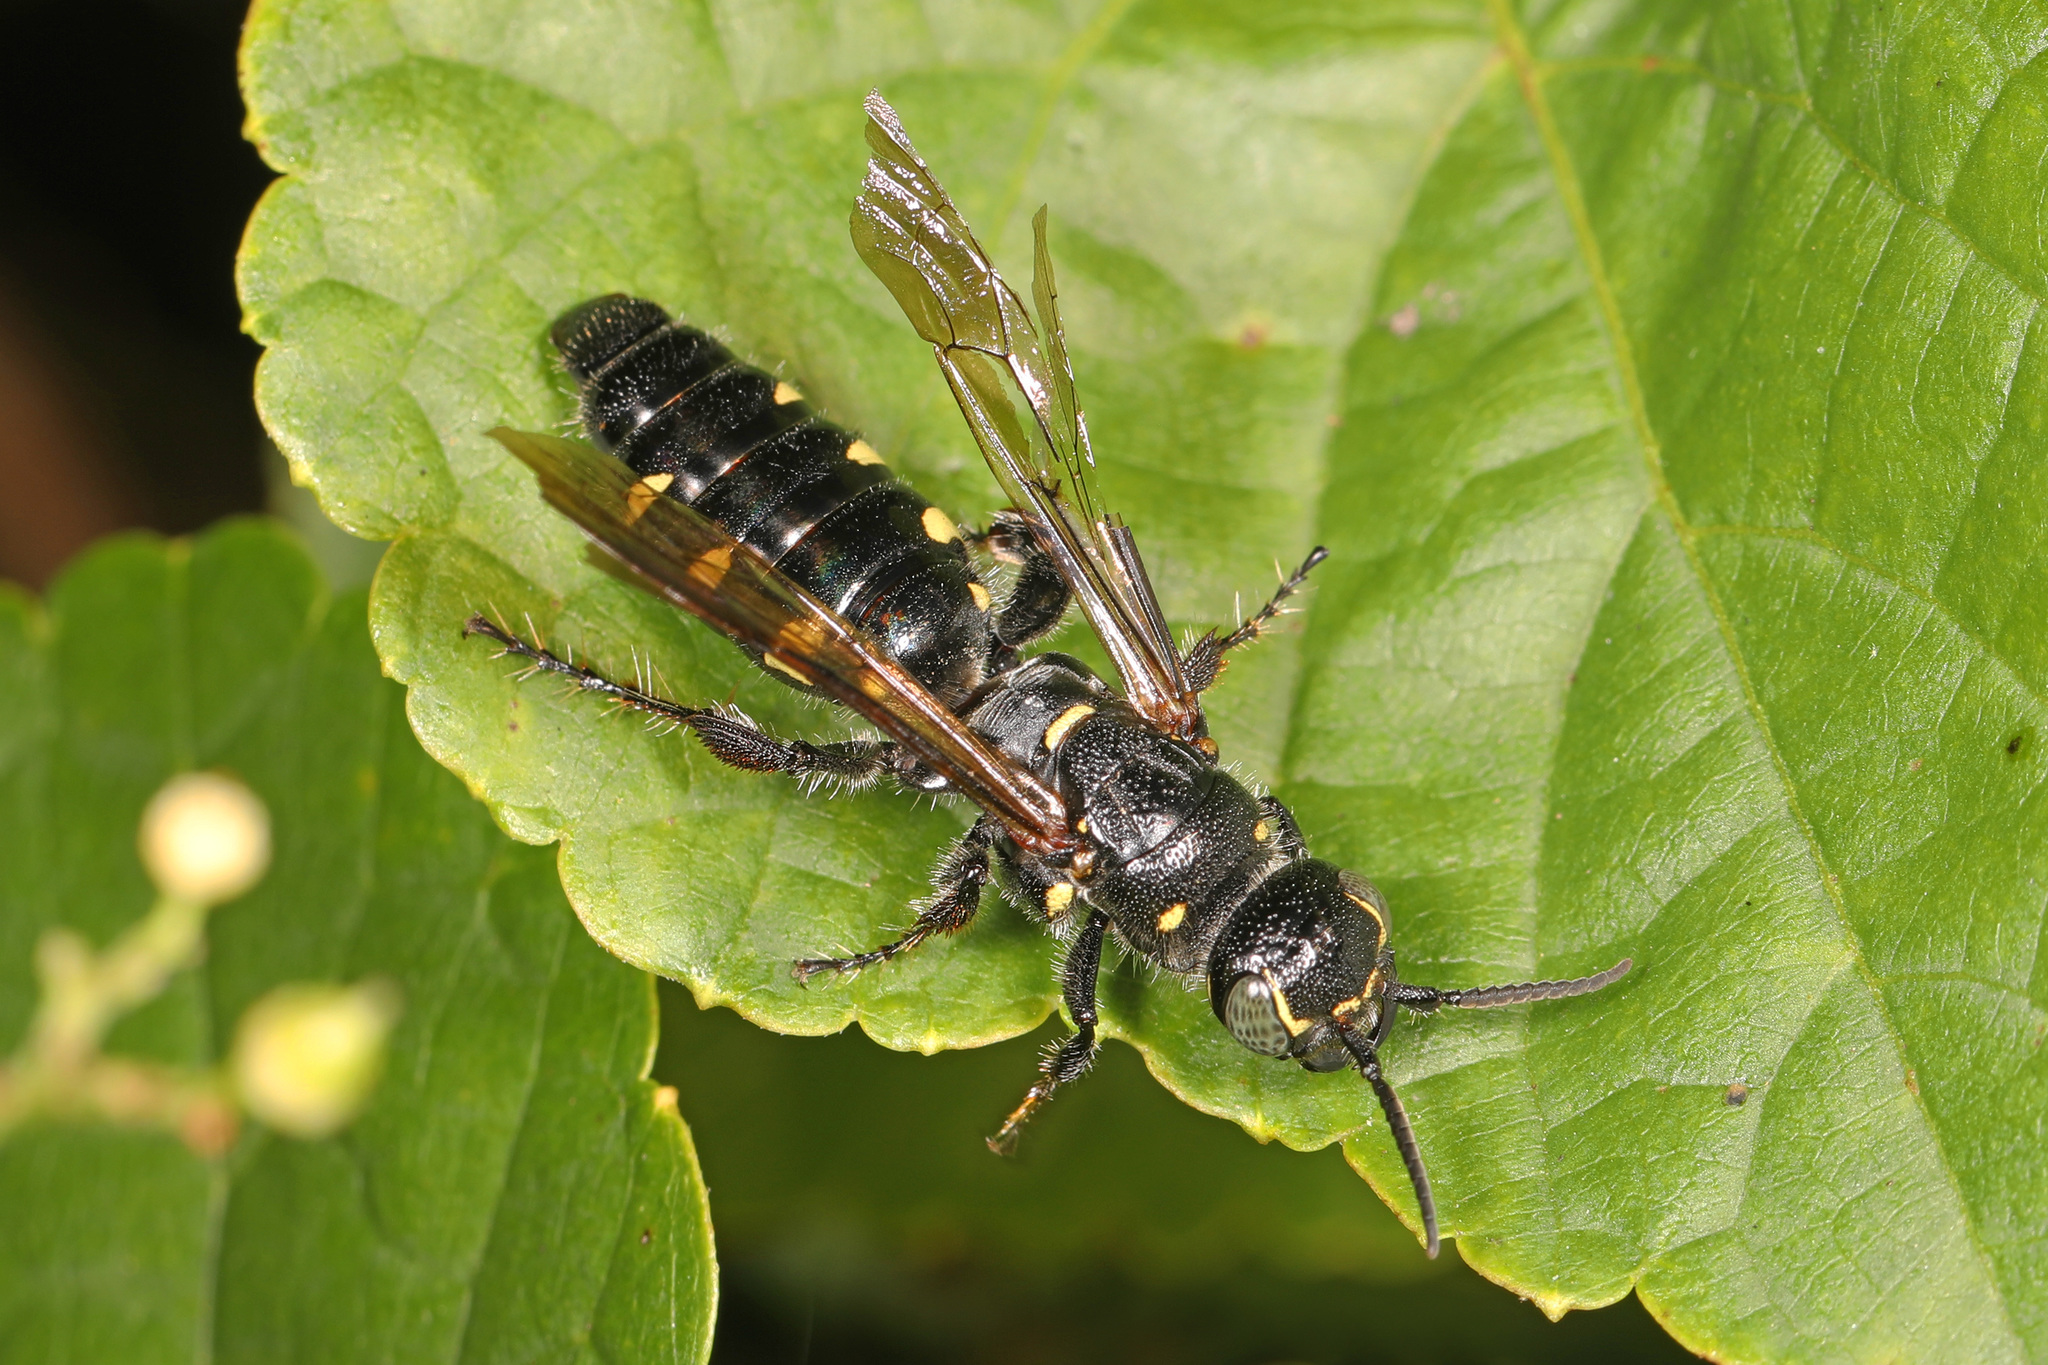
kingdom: Animalia
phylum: Arthropoda
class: Insecta
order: Hymenoptera
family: Tiphiidae
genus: Myzinum
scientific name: Myzinum obscurum
